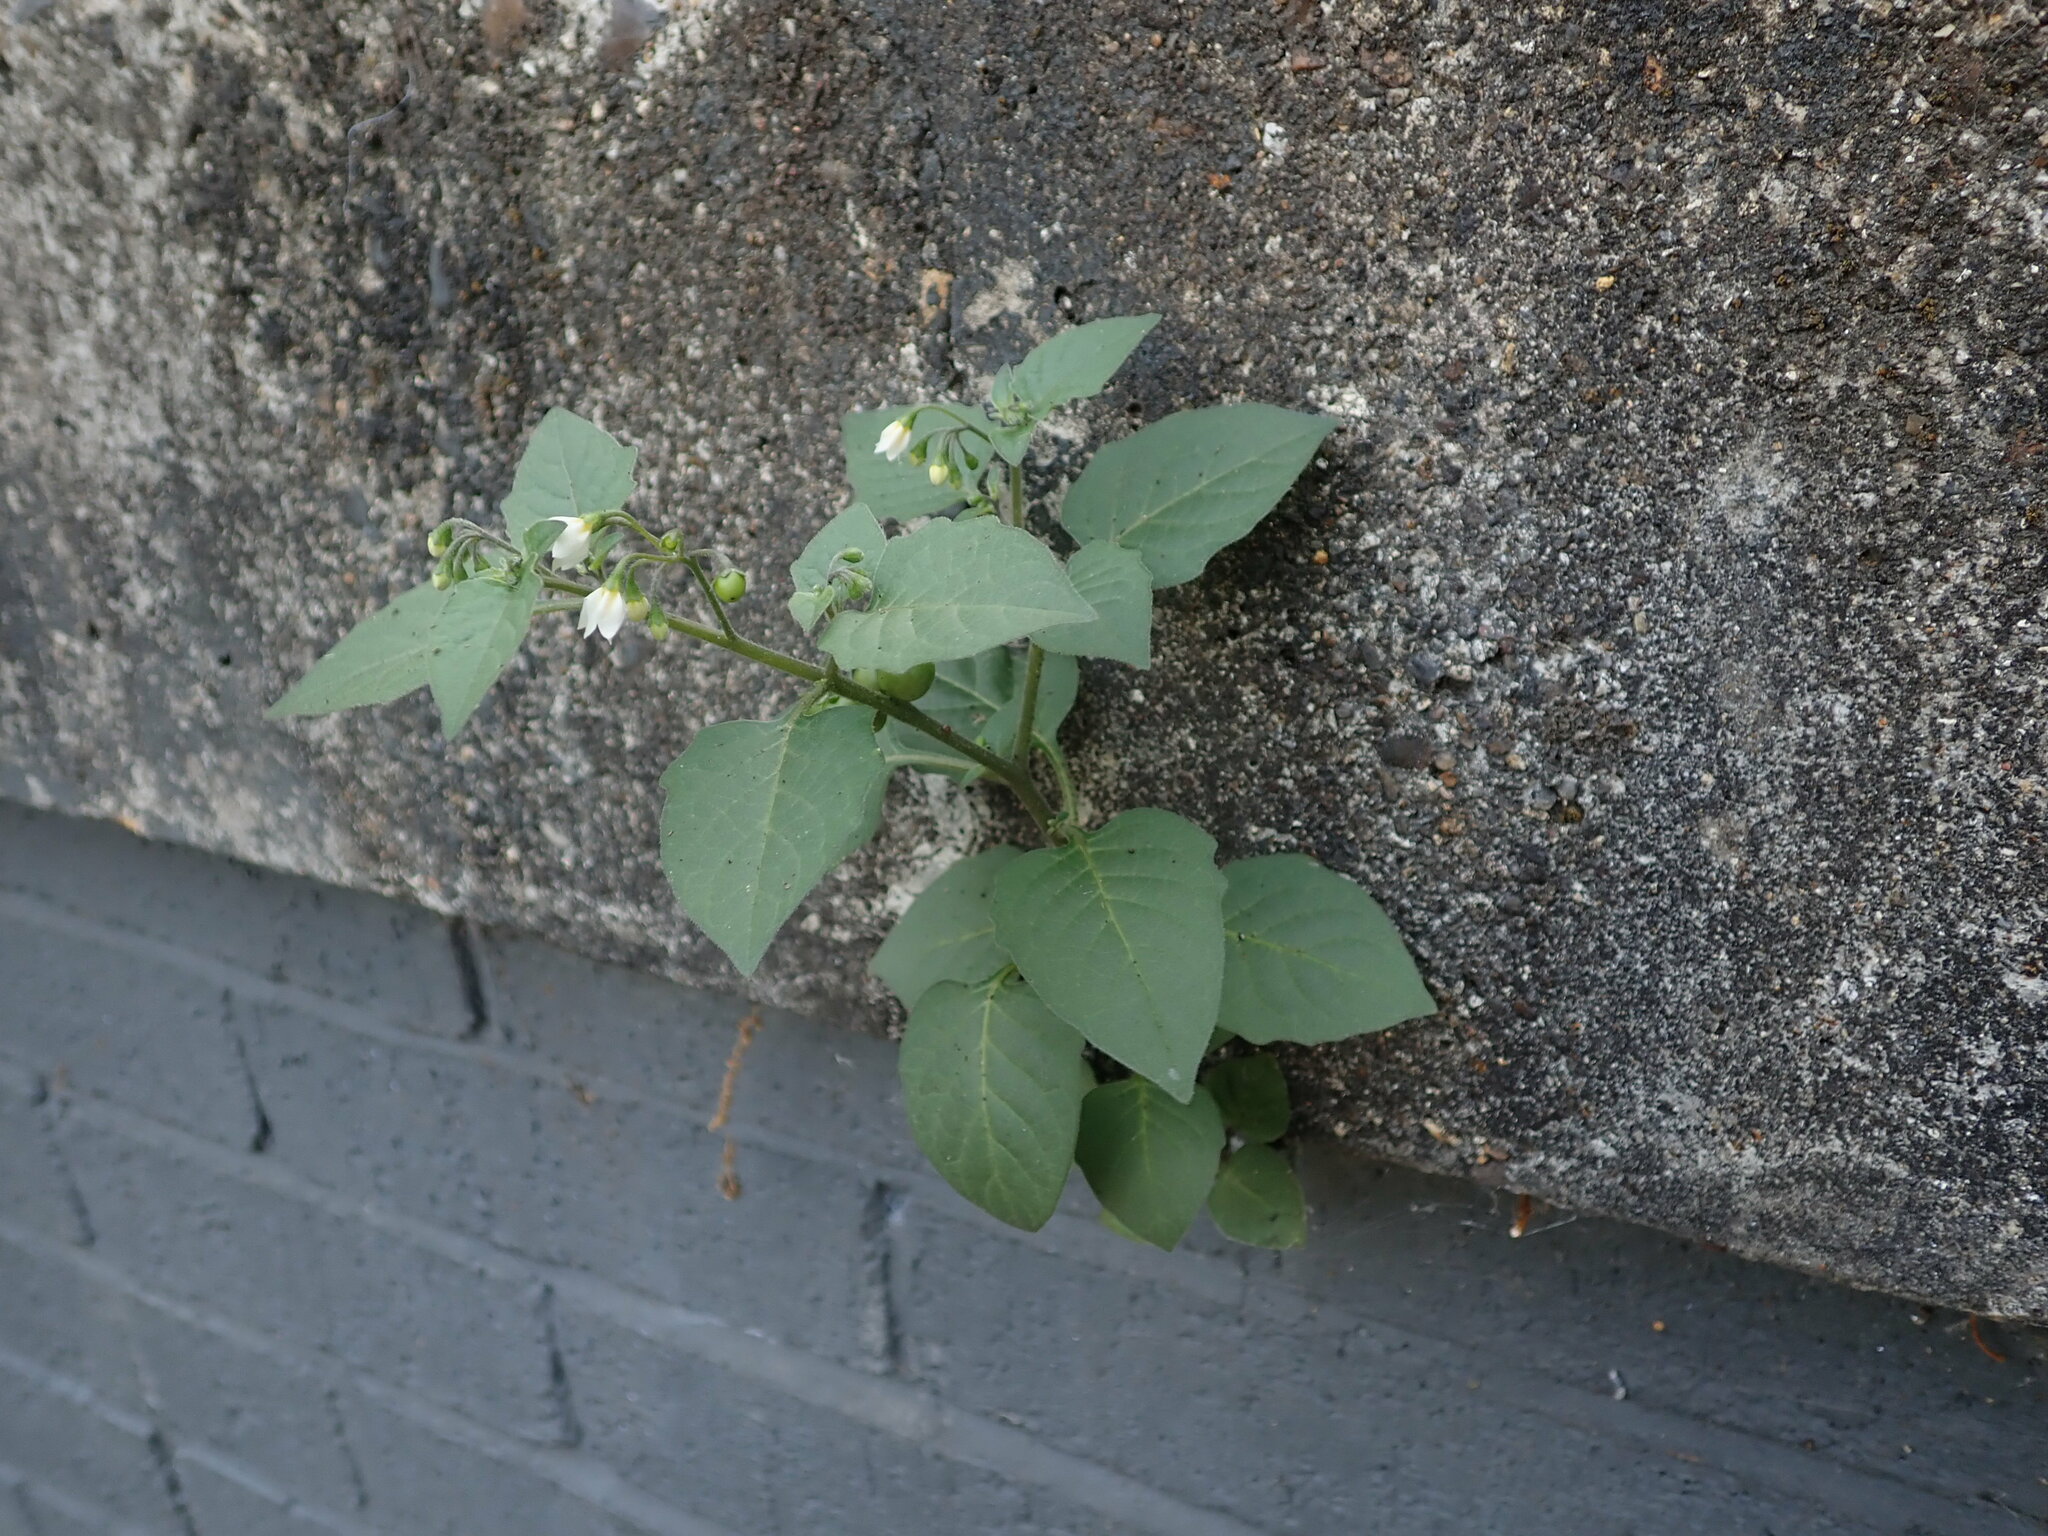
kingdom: Plantae
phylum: Tracheophyta
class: Magnoliopsida
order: Solanales
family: Solanaceae
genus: Solanum
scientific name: Solanum nigrum
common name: Black nightshade
